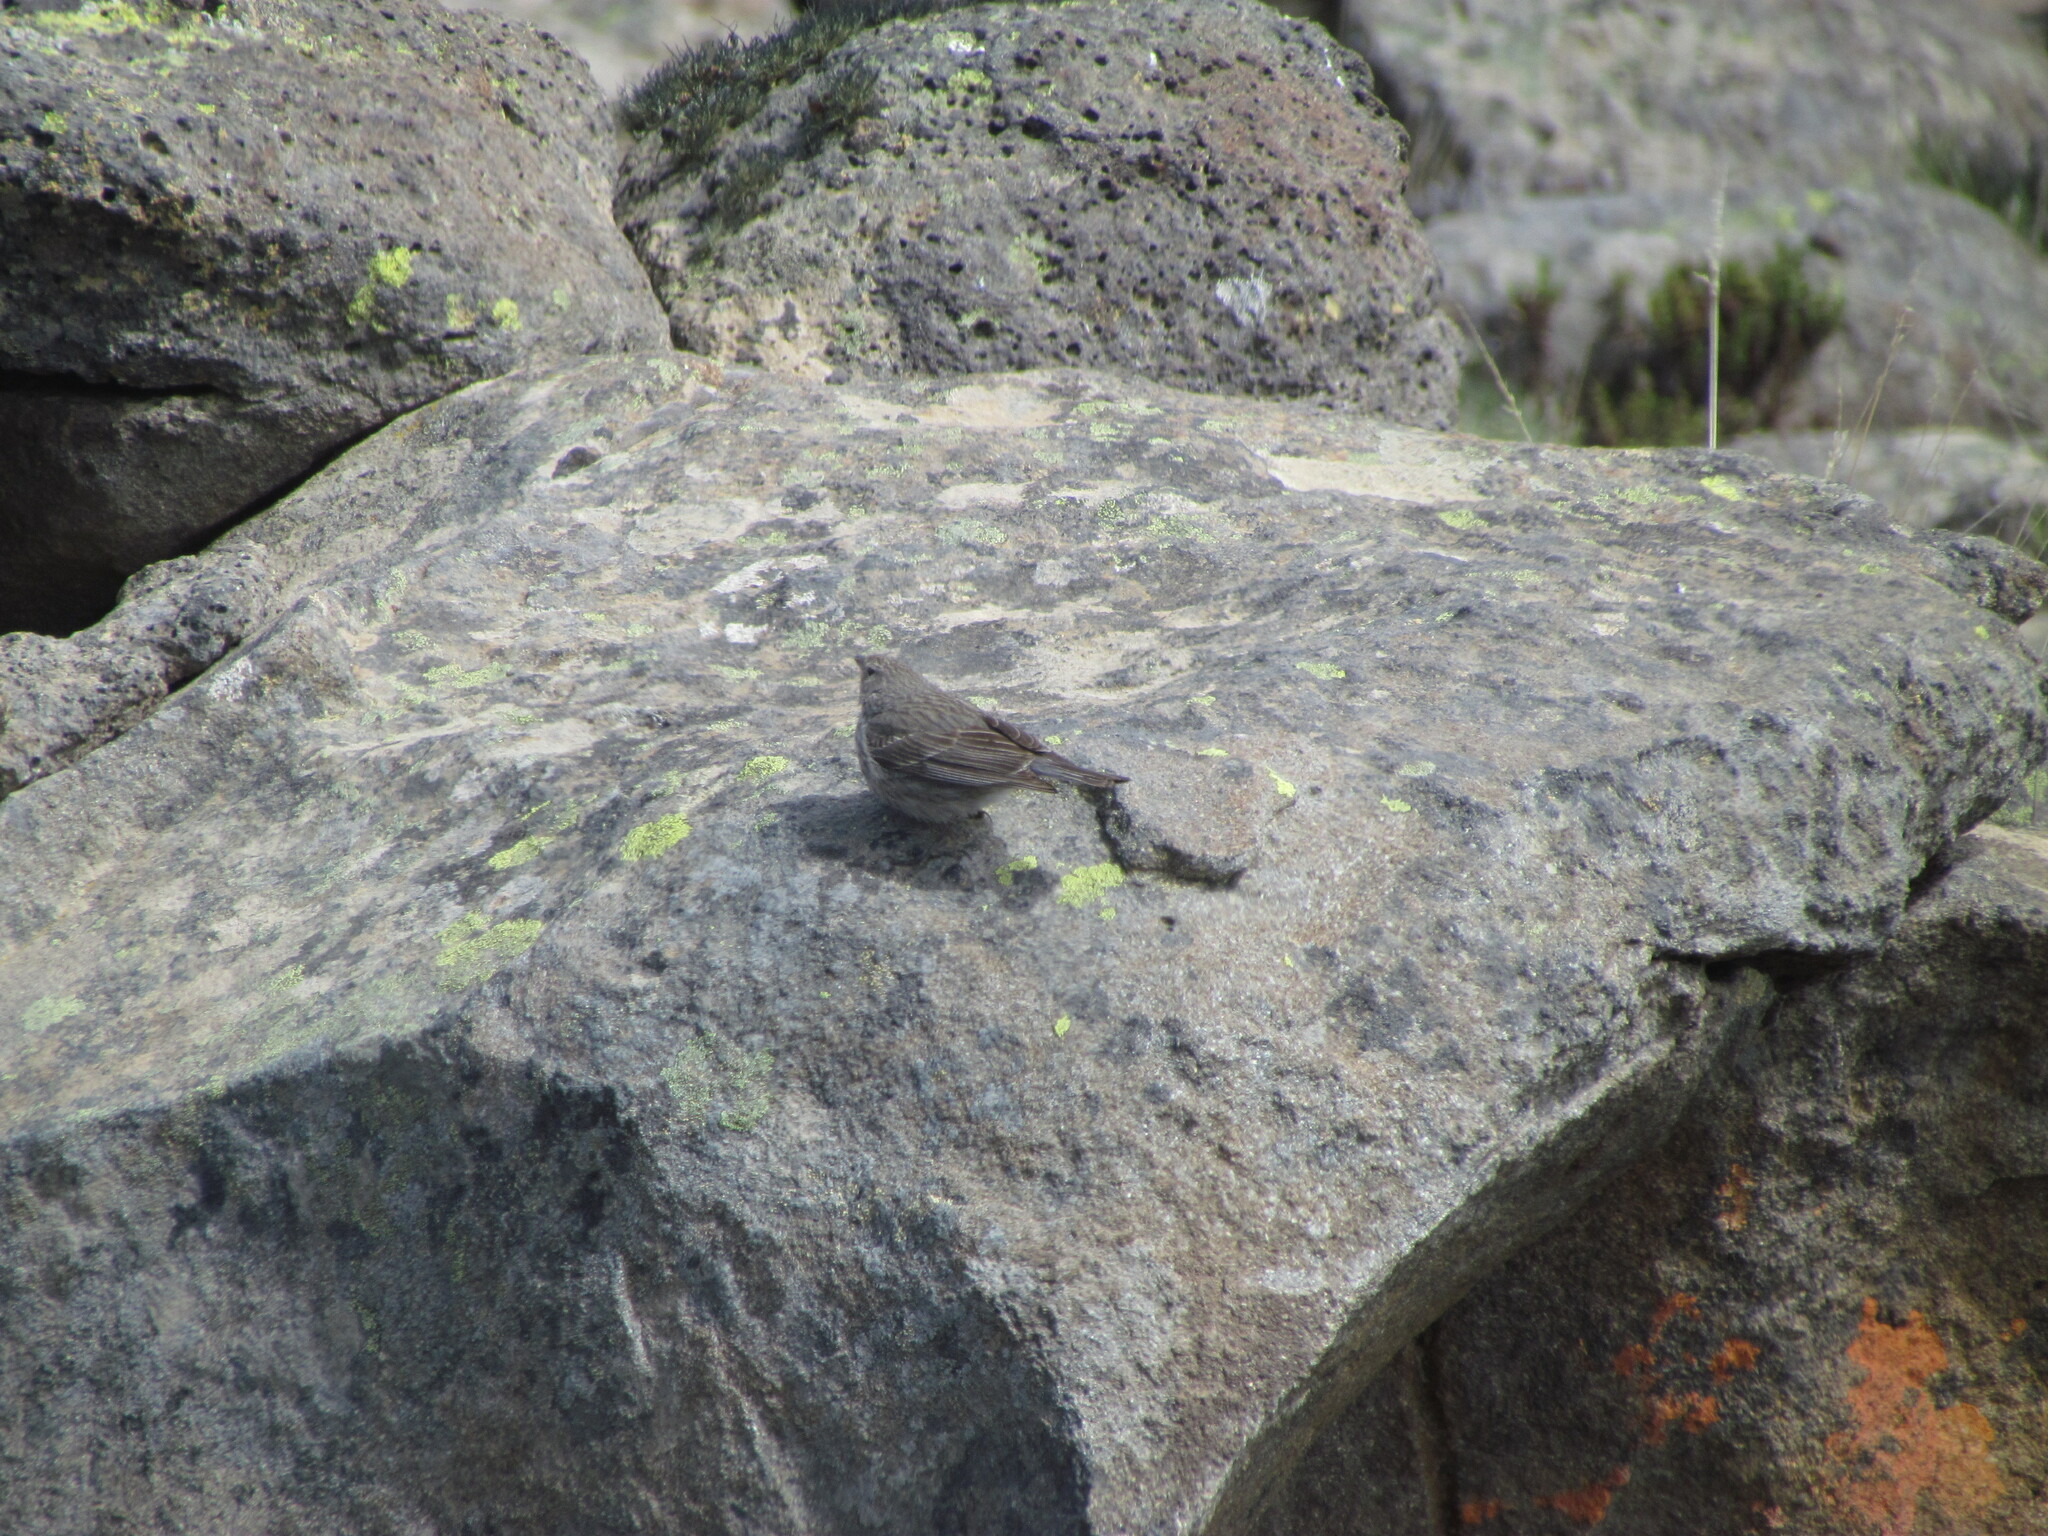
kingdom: Animalia
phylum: Chordata
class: Aves
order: Passeriformes
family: Thraupidae
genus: Geospizopsis
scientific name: Geospizopsis unicolor
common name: Plumbeous sierra-finch
